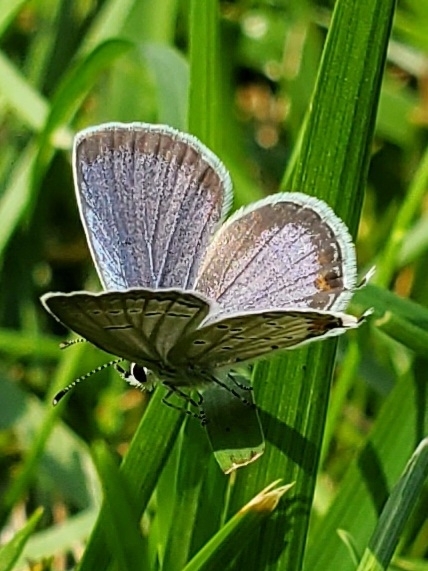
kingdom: Animalia
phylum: Arthropoda
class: Insecta
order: Lepidoptera
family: Lycaenidae
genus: Elkalyce
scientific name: Elkalyce comyntas
